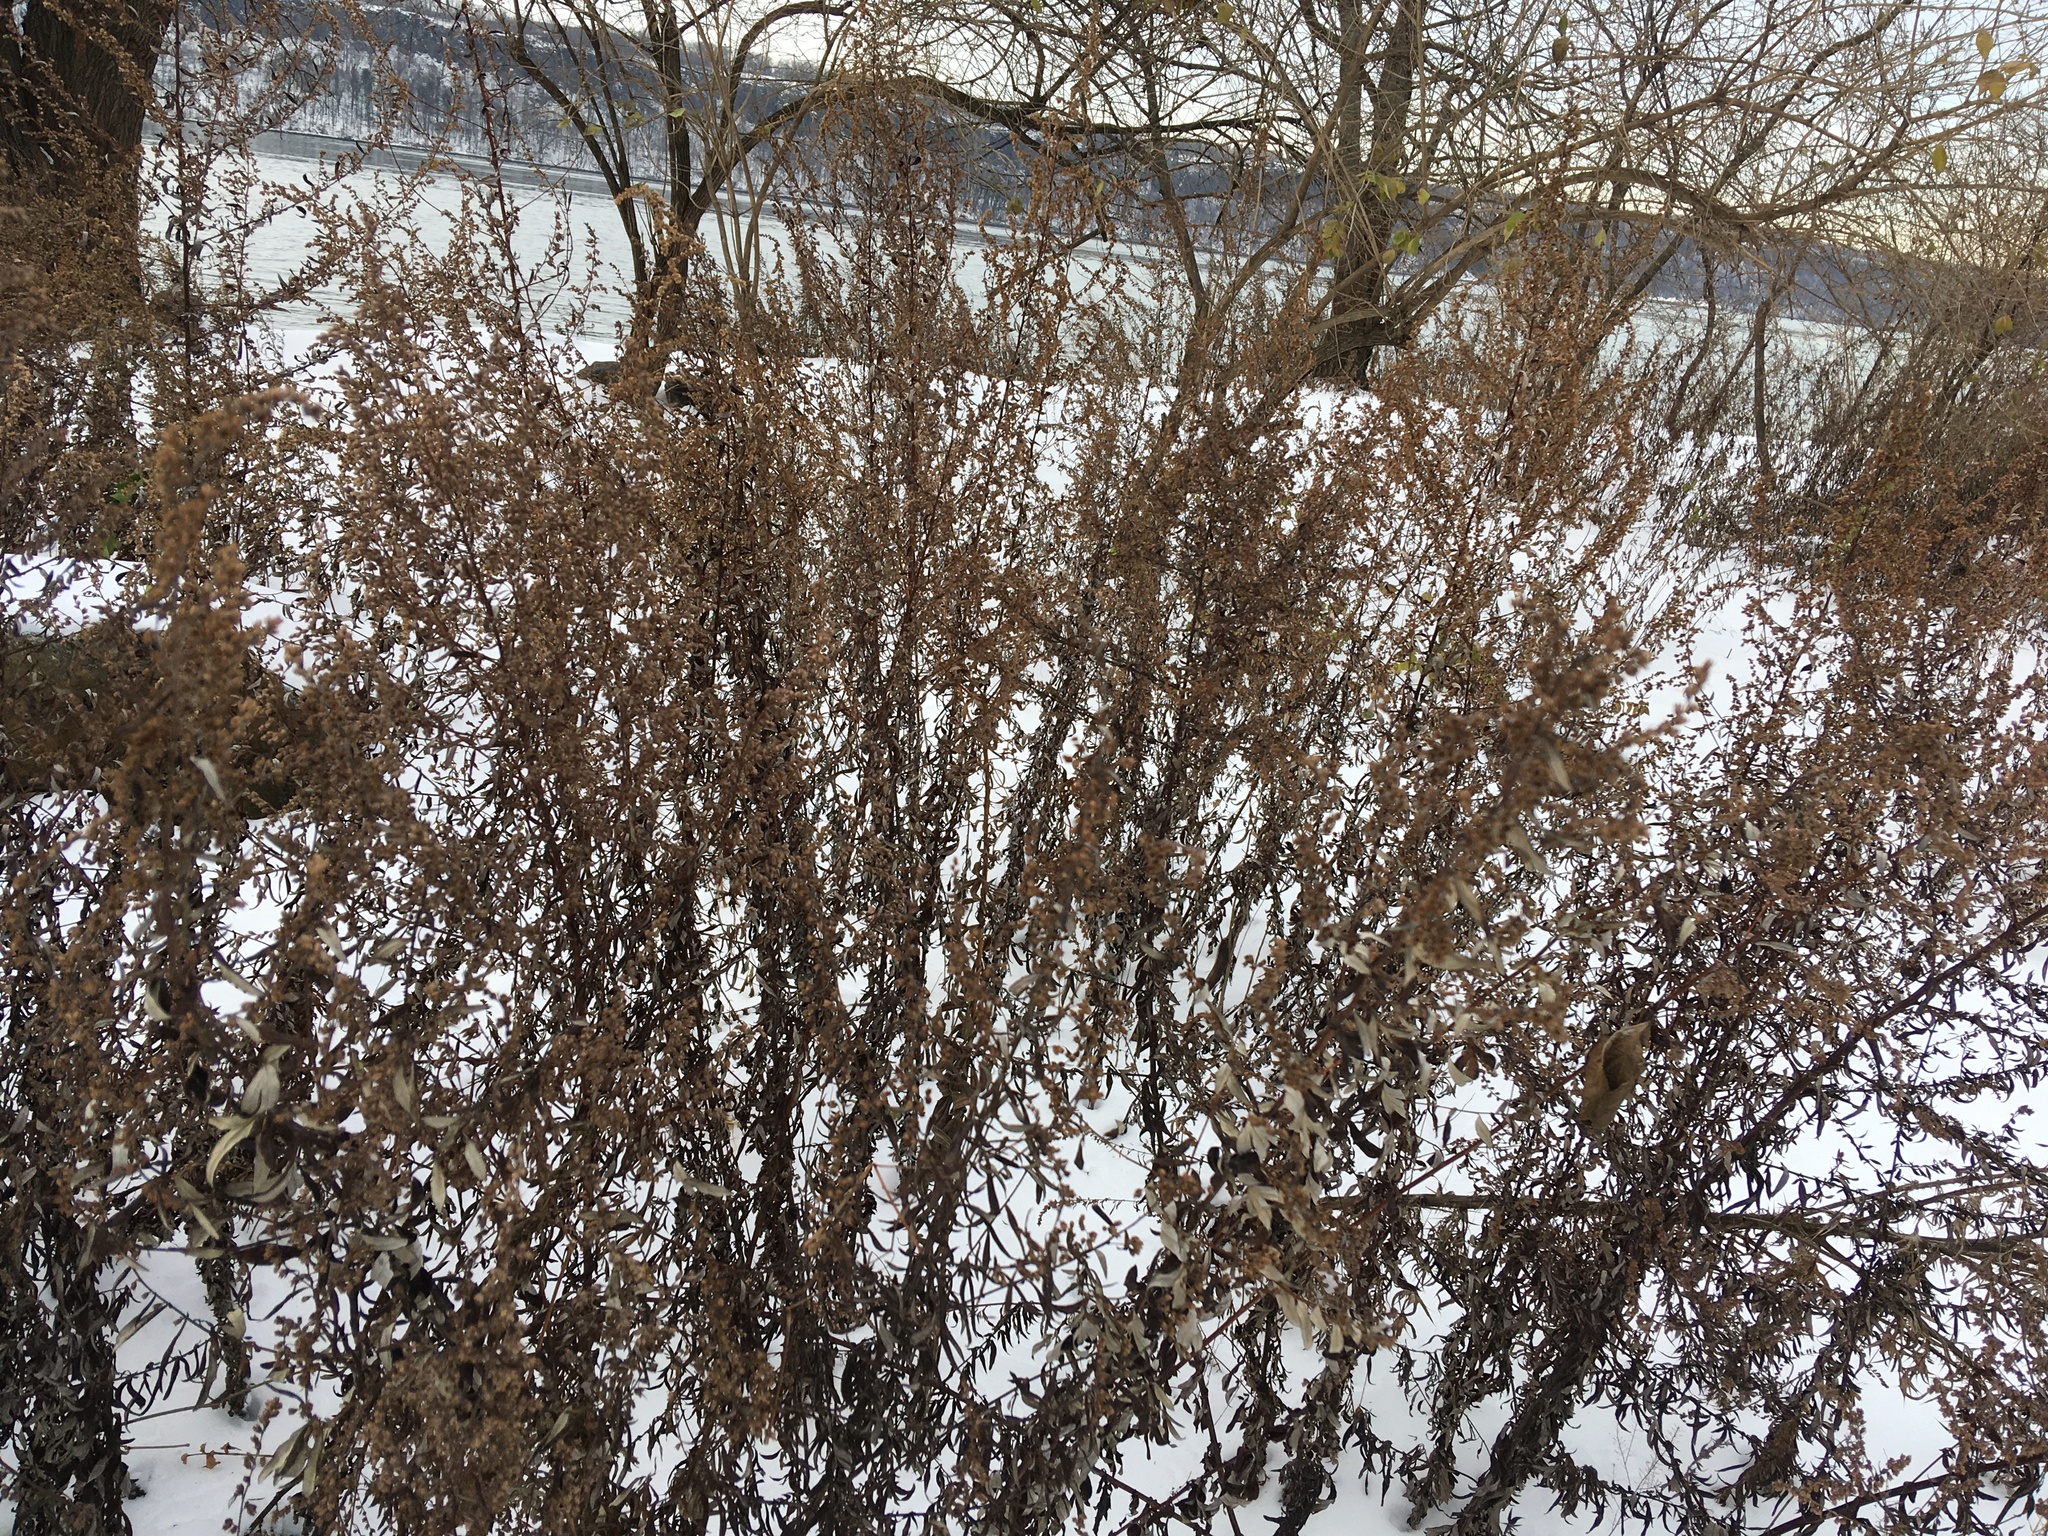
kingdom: Plantae
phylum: Tracheophyta
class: Magnoliopsida
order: Asterales
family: Asteraceae
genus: Artemisia
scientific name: Artemisia vulgaris
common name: Mugwort
